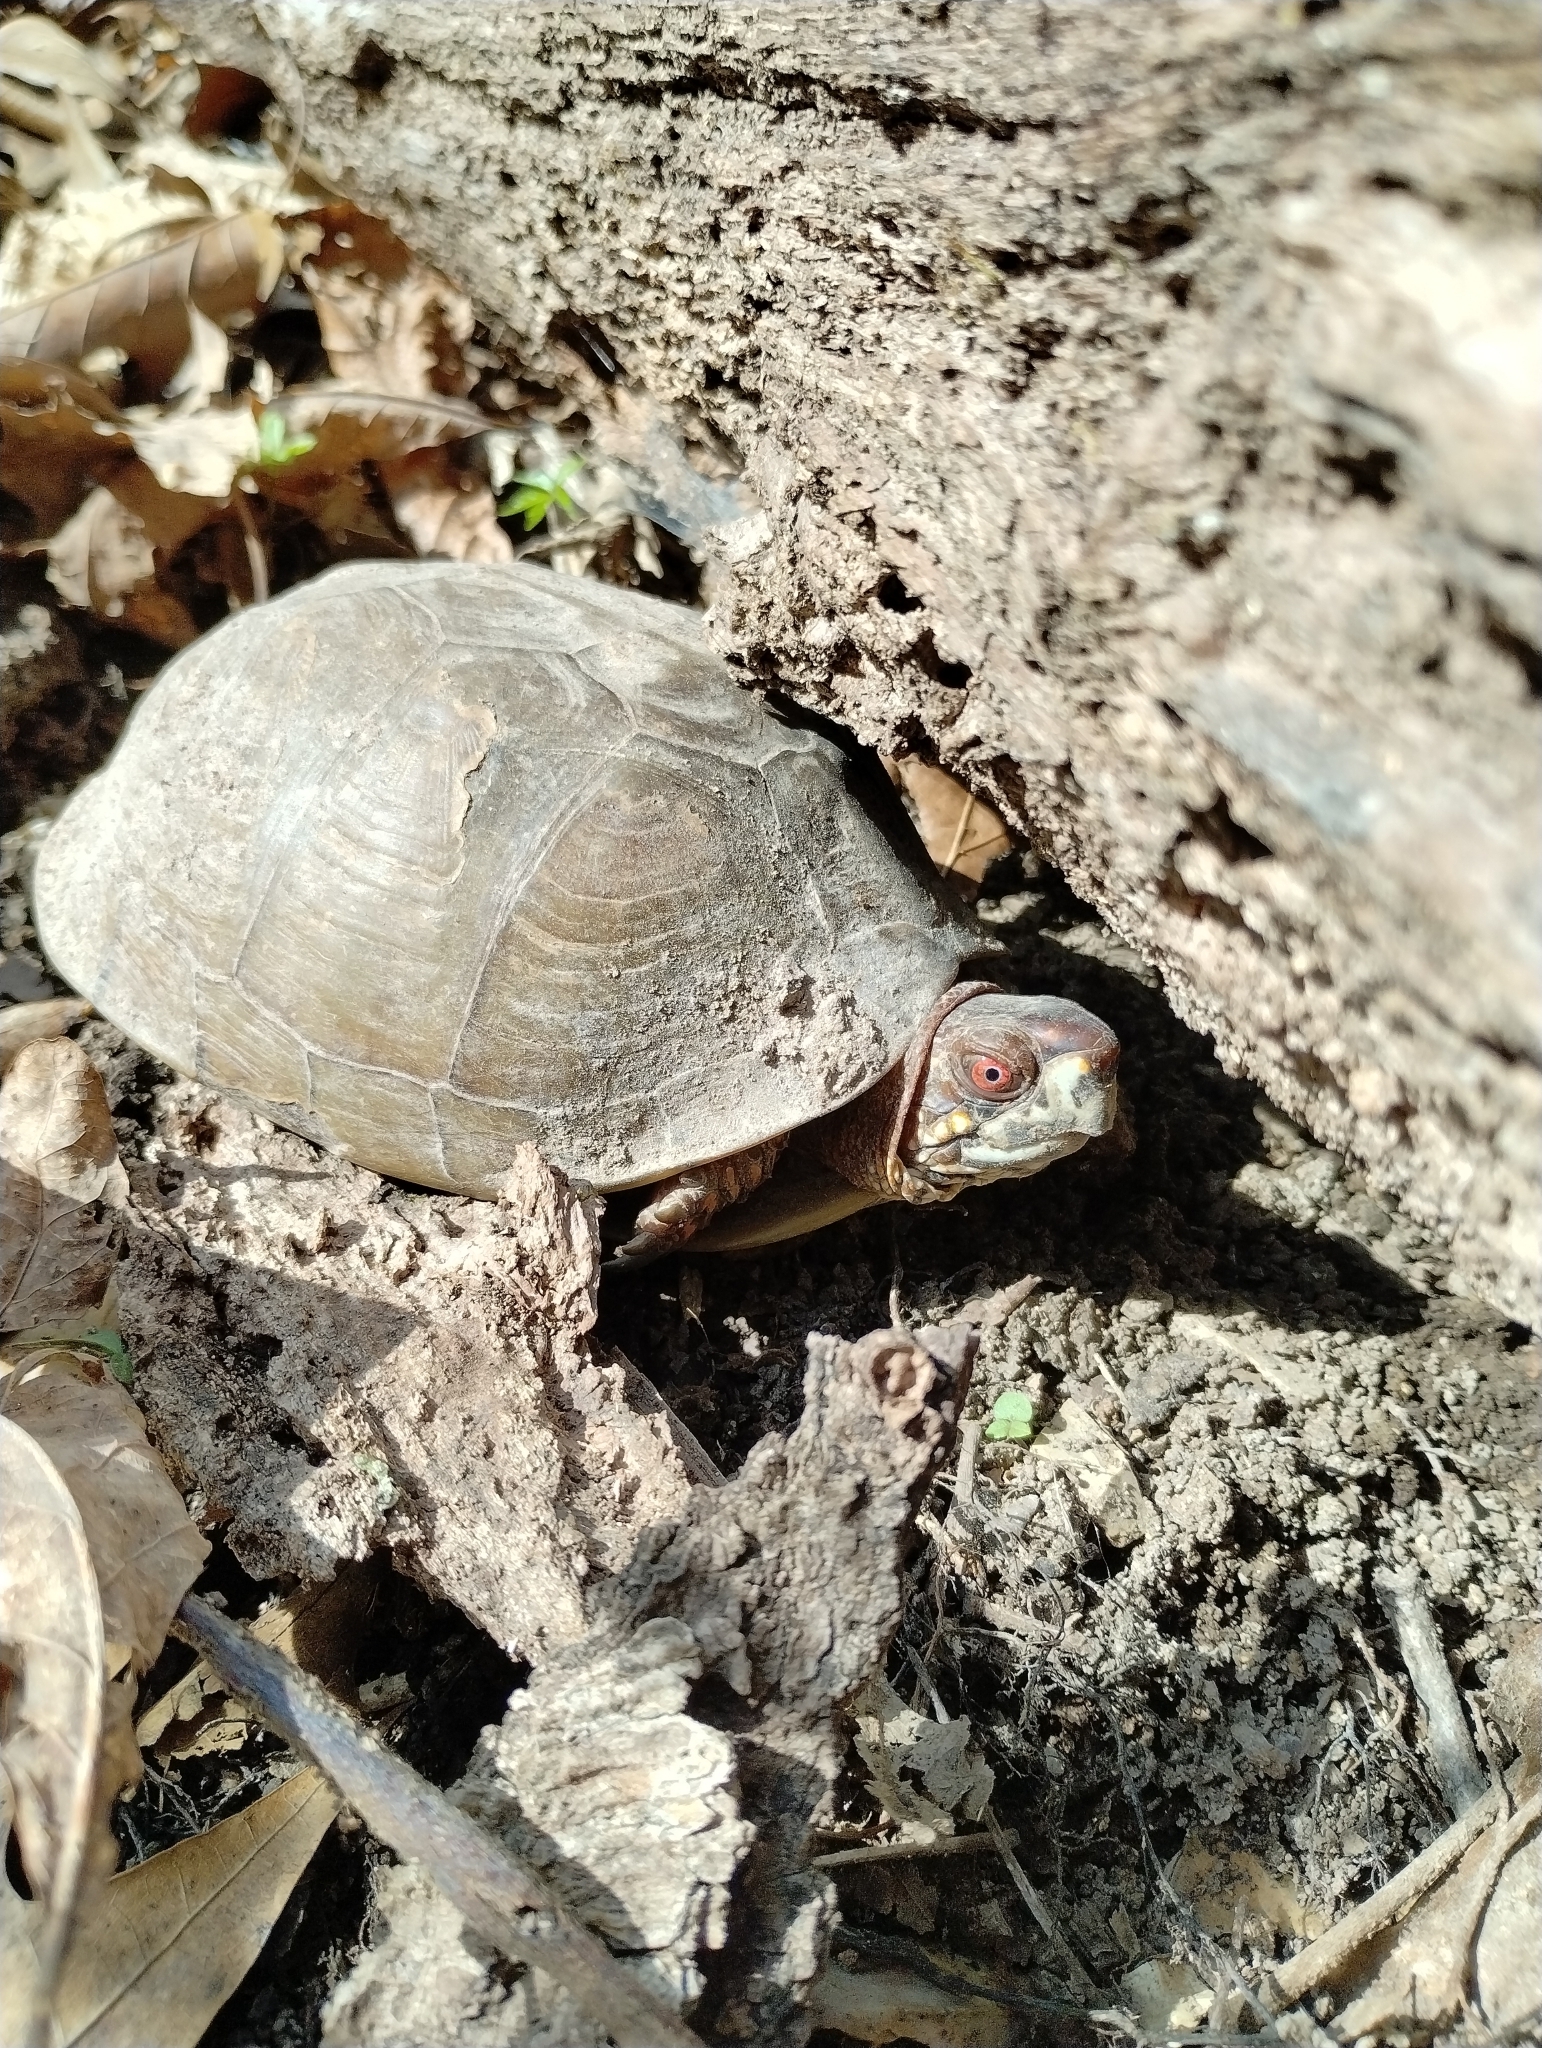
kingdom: Animalia
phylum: Chordata
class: Testudines
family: Emydidae
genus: Terrapene
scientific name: Terrapene carolina
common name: Common box turtle
